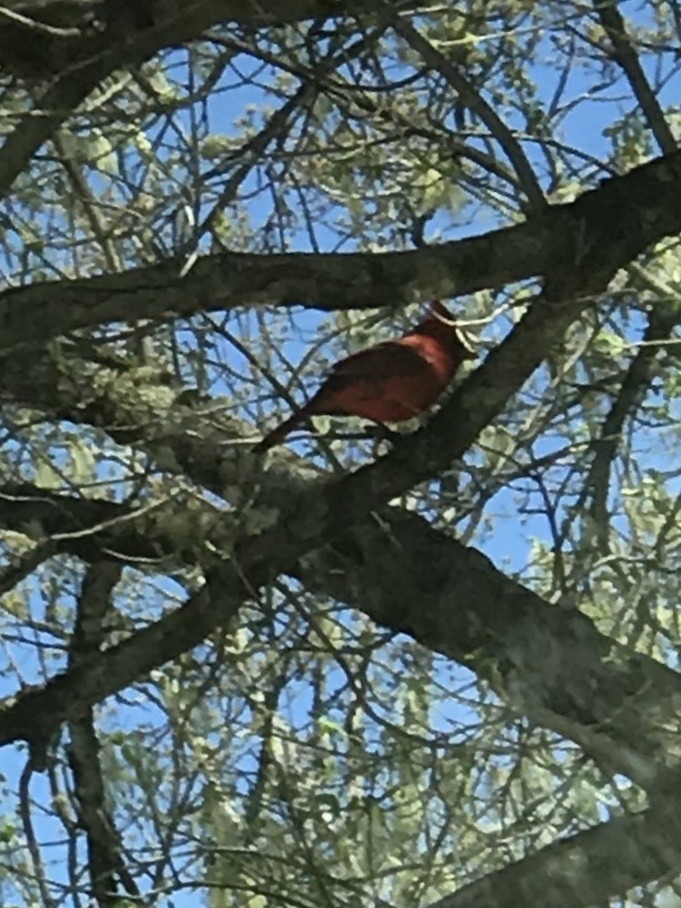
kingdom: Animalia
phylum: Chordata
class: Aves
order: Passeriformes
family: Cardinalidae
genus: Cardinalis
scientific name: Cardinalis cardinalis
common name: Northern cardinal
